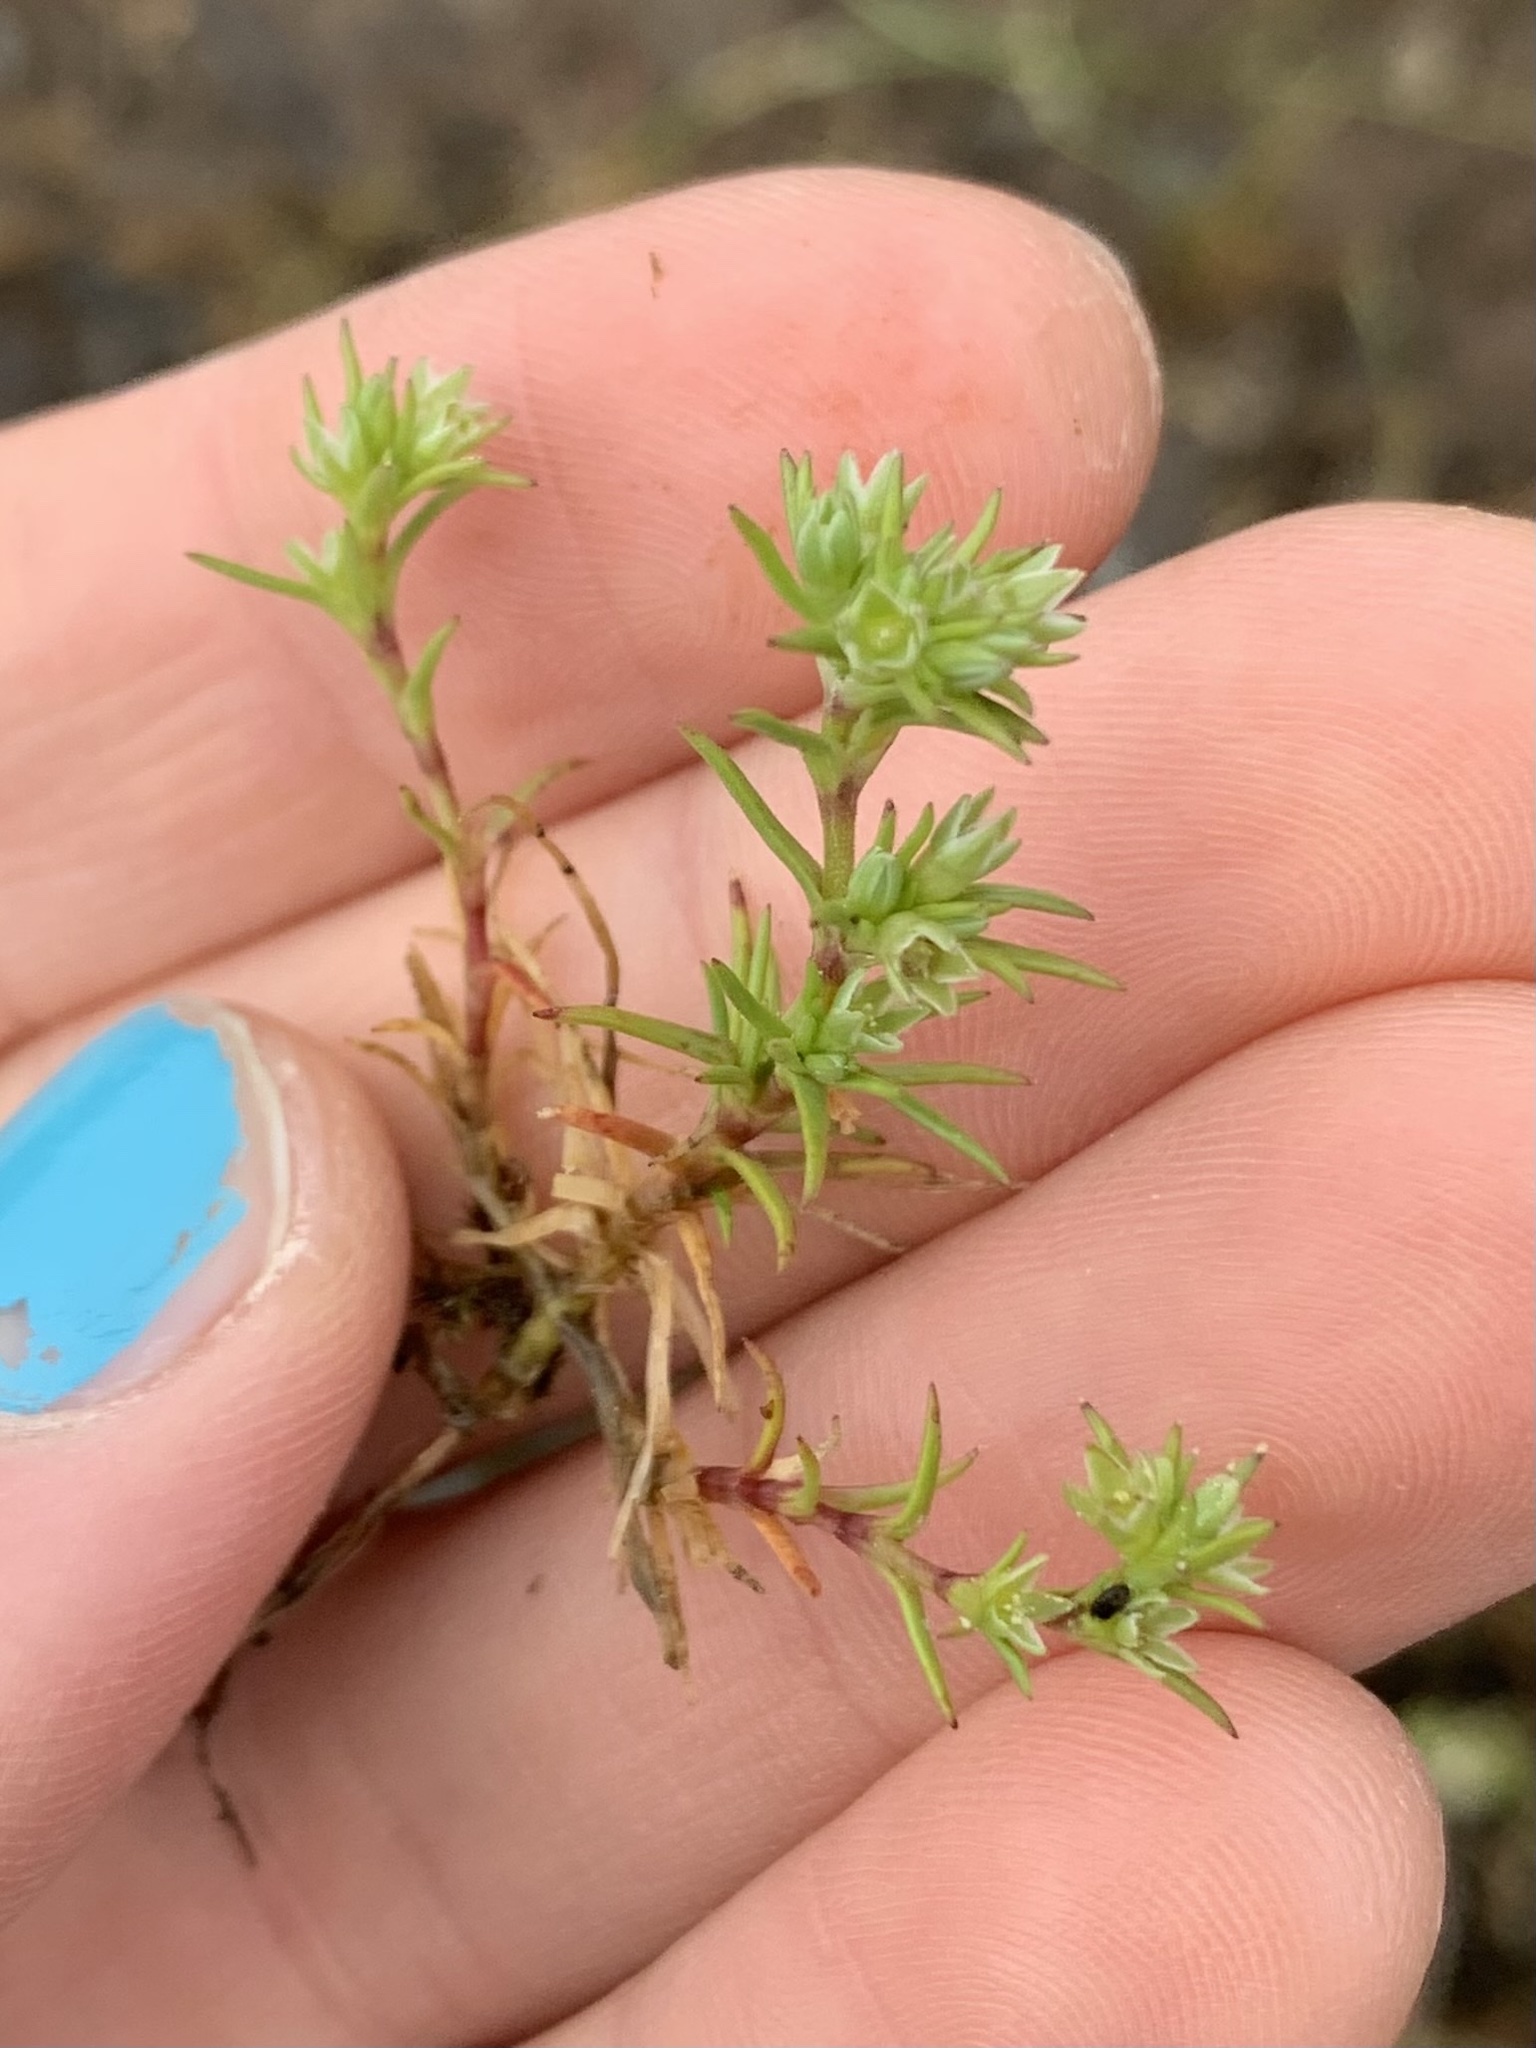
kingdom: Plantae
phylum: Tracheophyta
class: Magnoliopsida
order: Caryophyllales
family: Caryophyllaceae
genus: Scleranthus
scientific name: Scleranthus annuus
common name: Annual knawel
